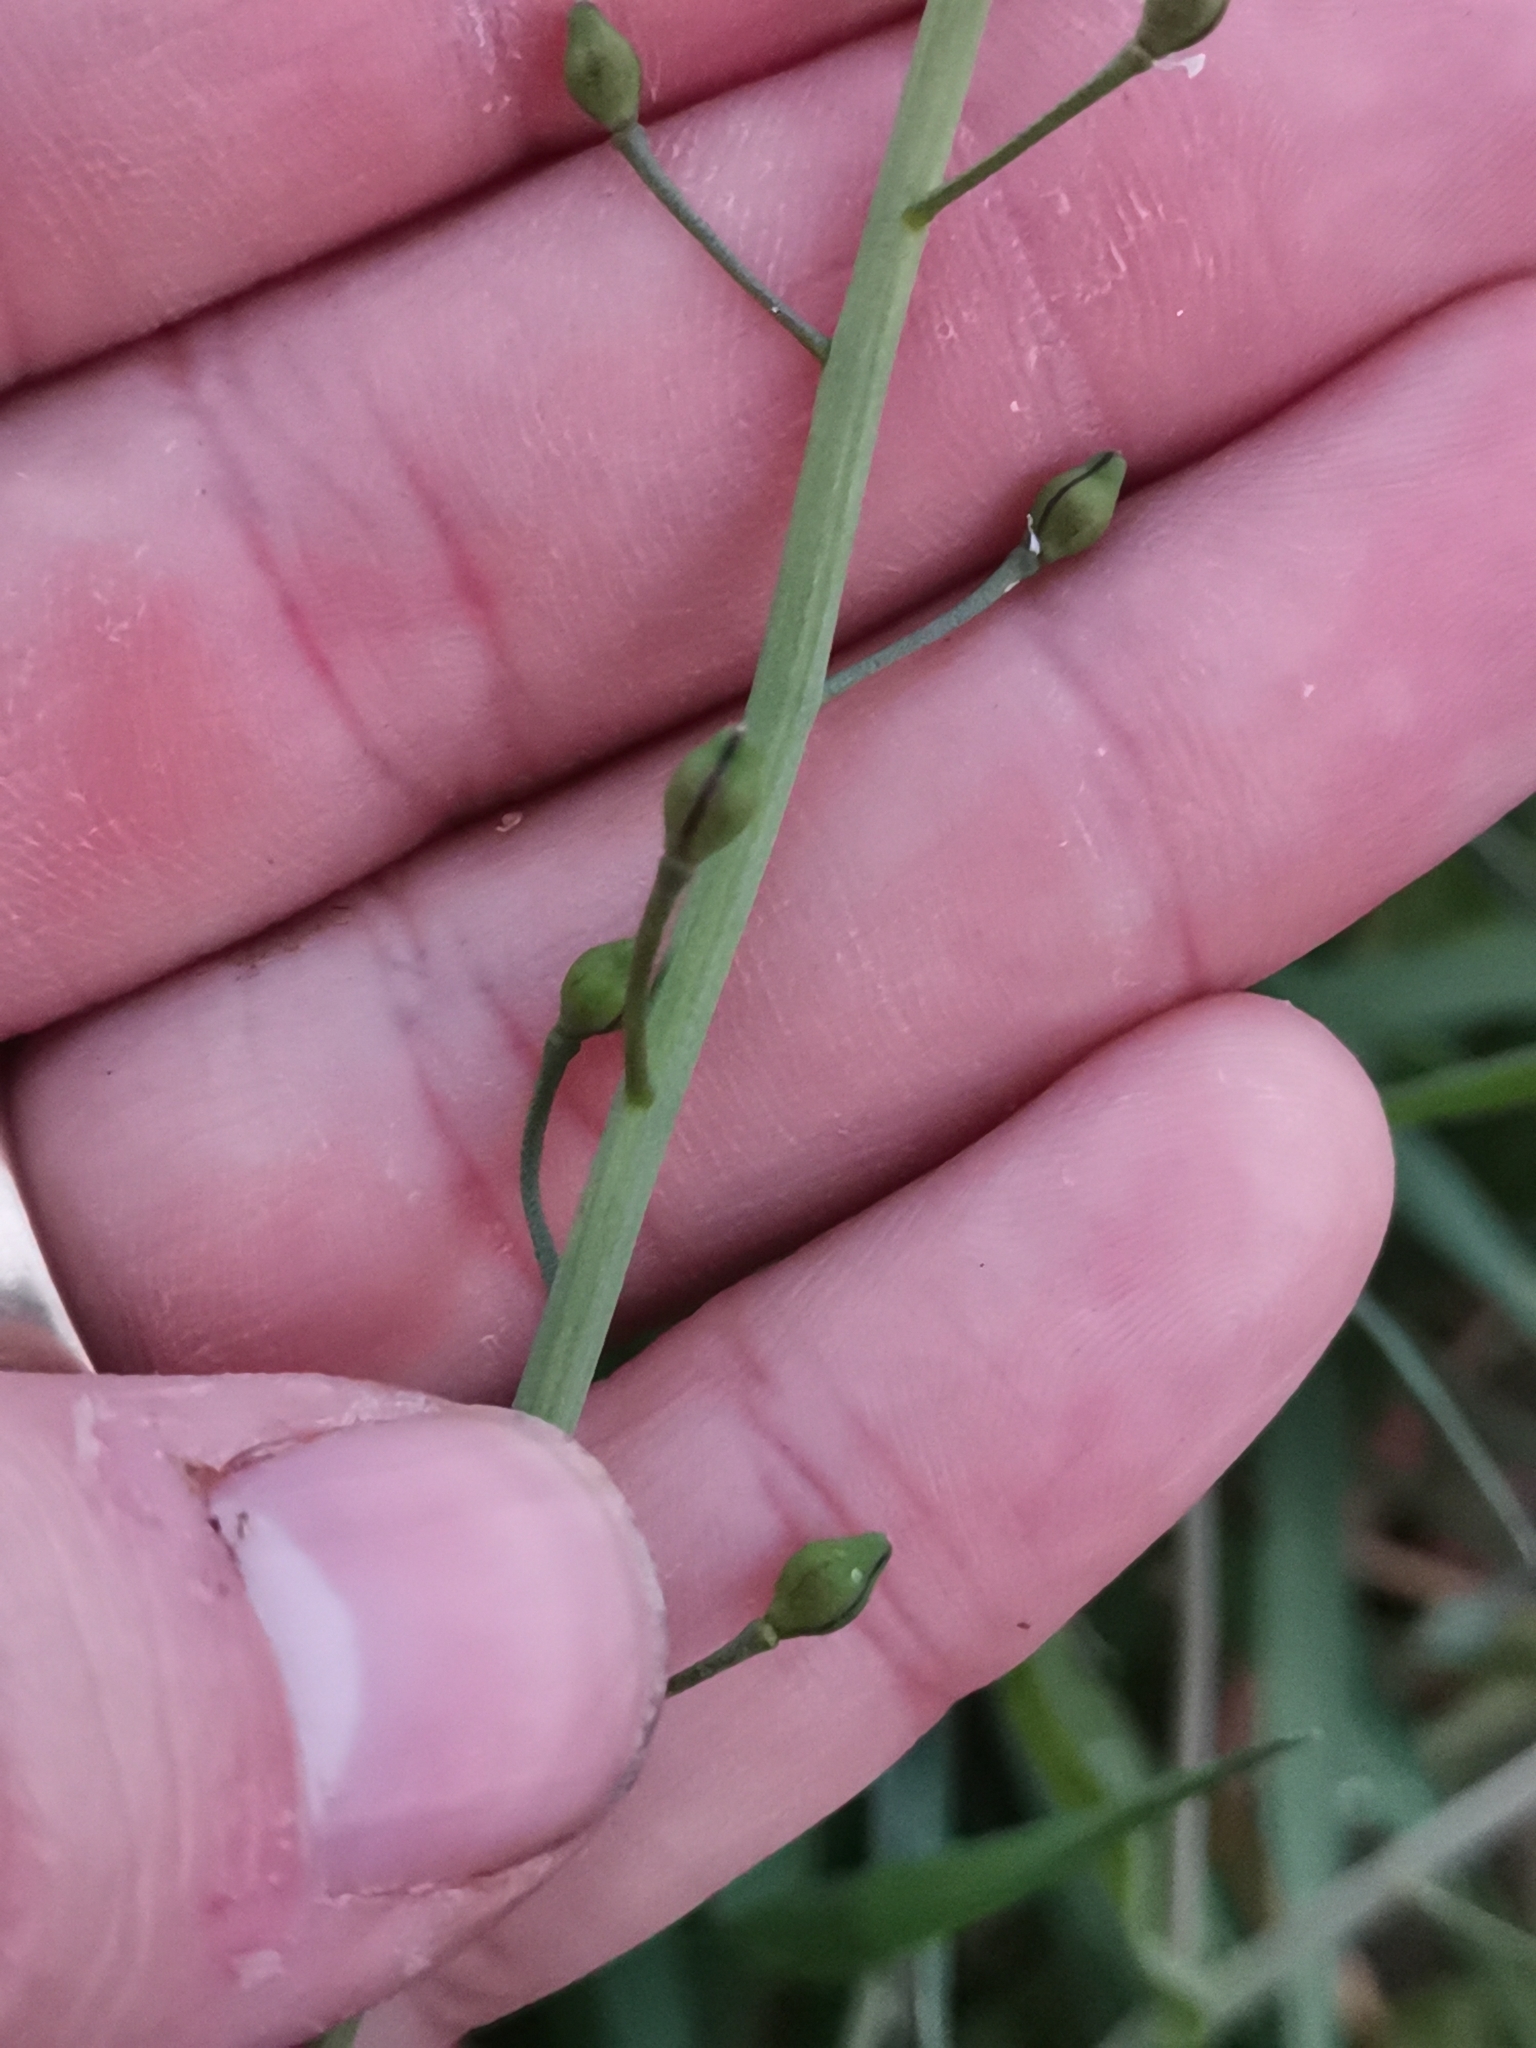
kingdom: Plantae
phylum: Tracheophyta
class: Magnoliopsida
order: Brassicales
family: Brassicaceae
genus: Calepina
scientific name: Calepina irregularis
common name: White ballmustard
